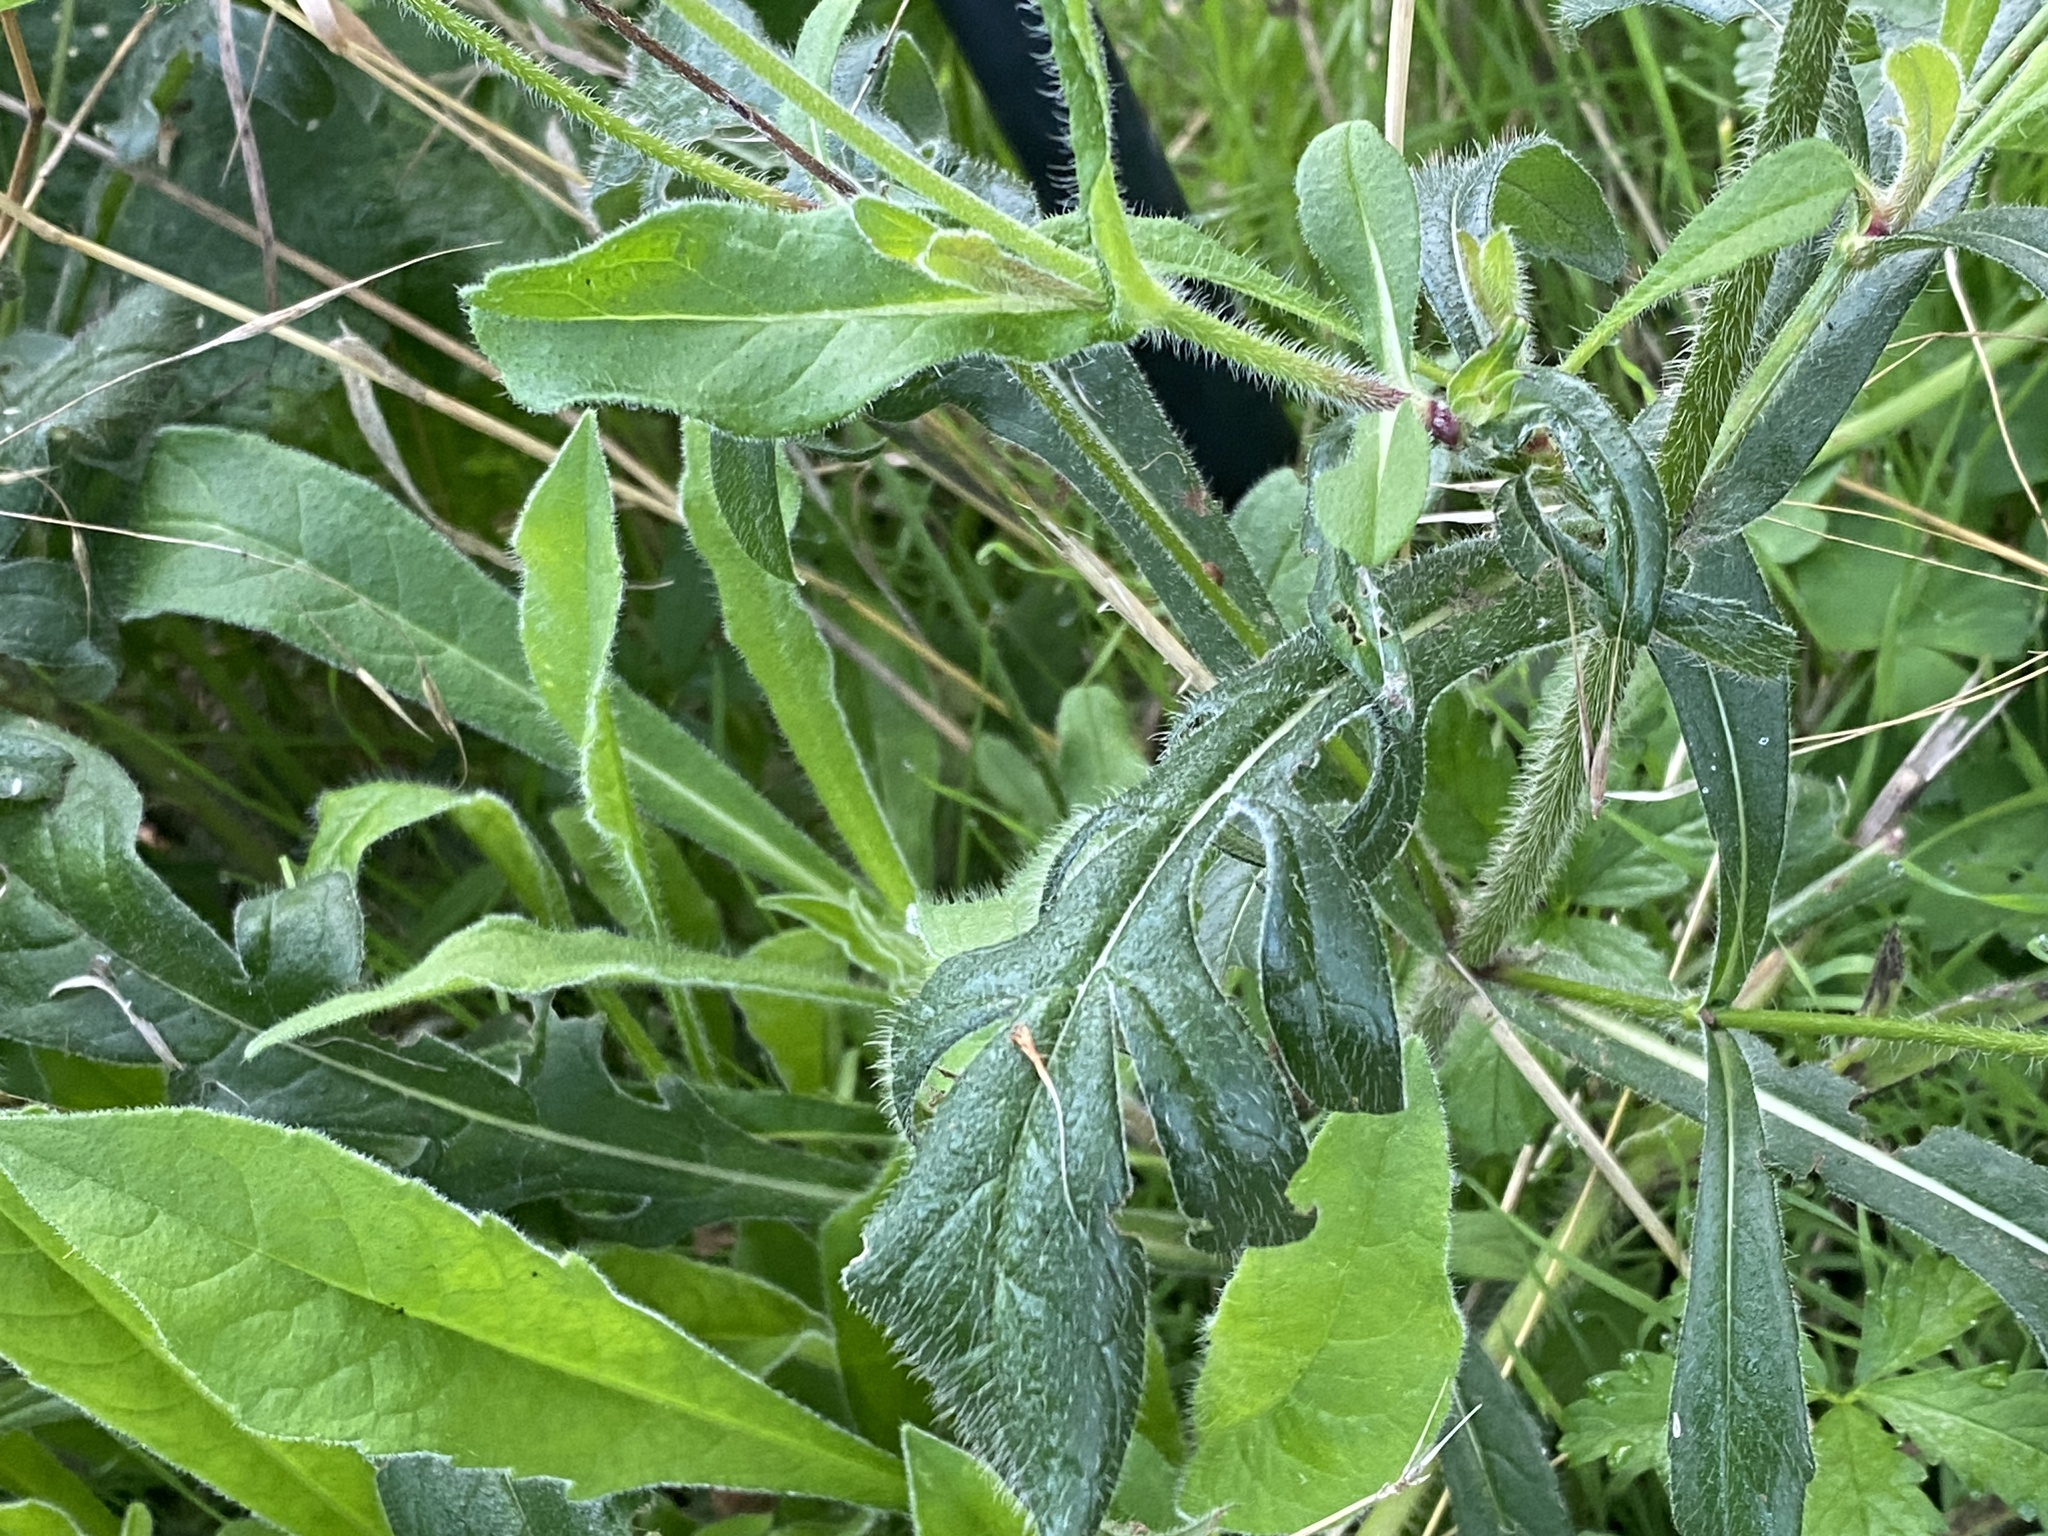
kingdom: Plantae
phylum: Tracheophyta
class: Magnoliopsida
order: Dipsacales
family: Caprifoliaceae
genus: Knautia
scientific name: Knautia arvensis
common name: Field scabiosa
